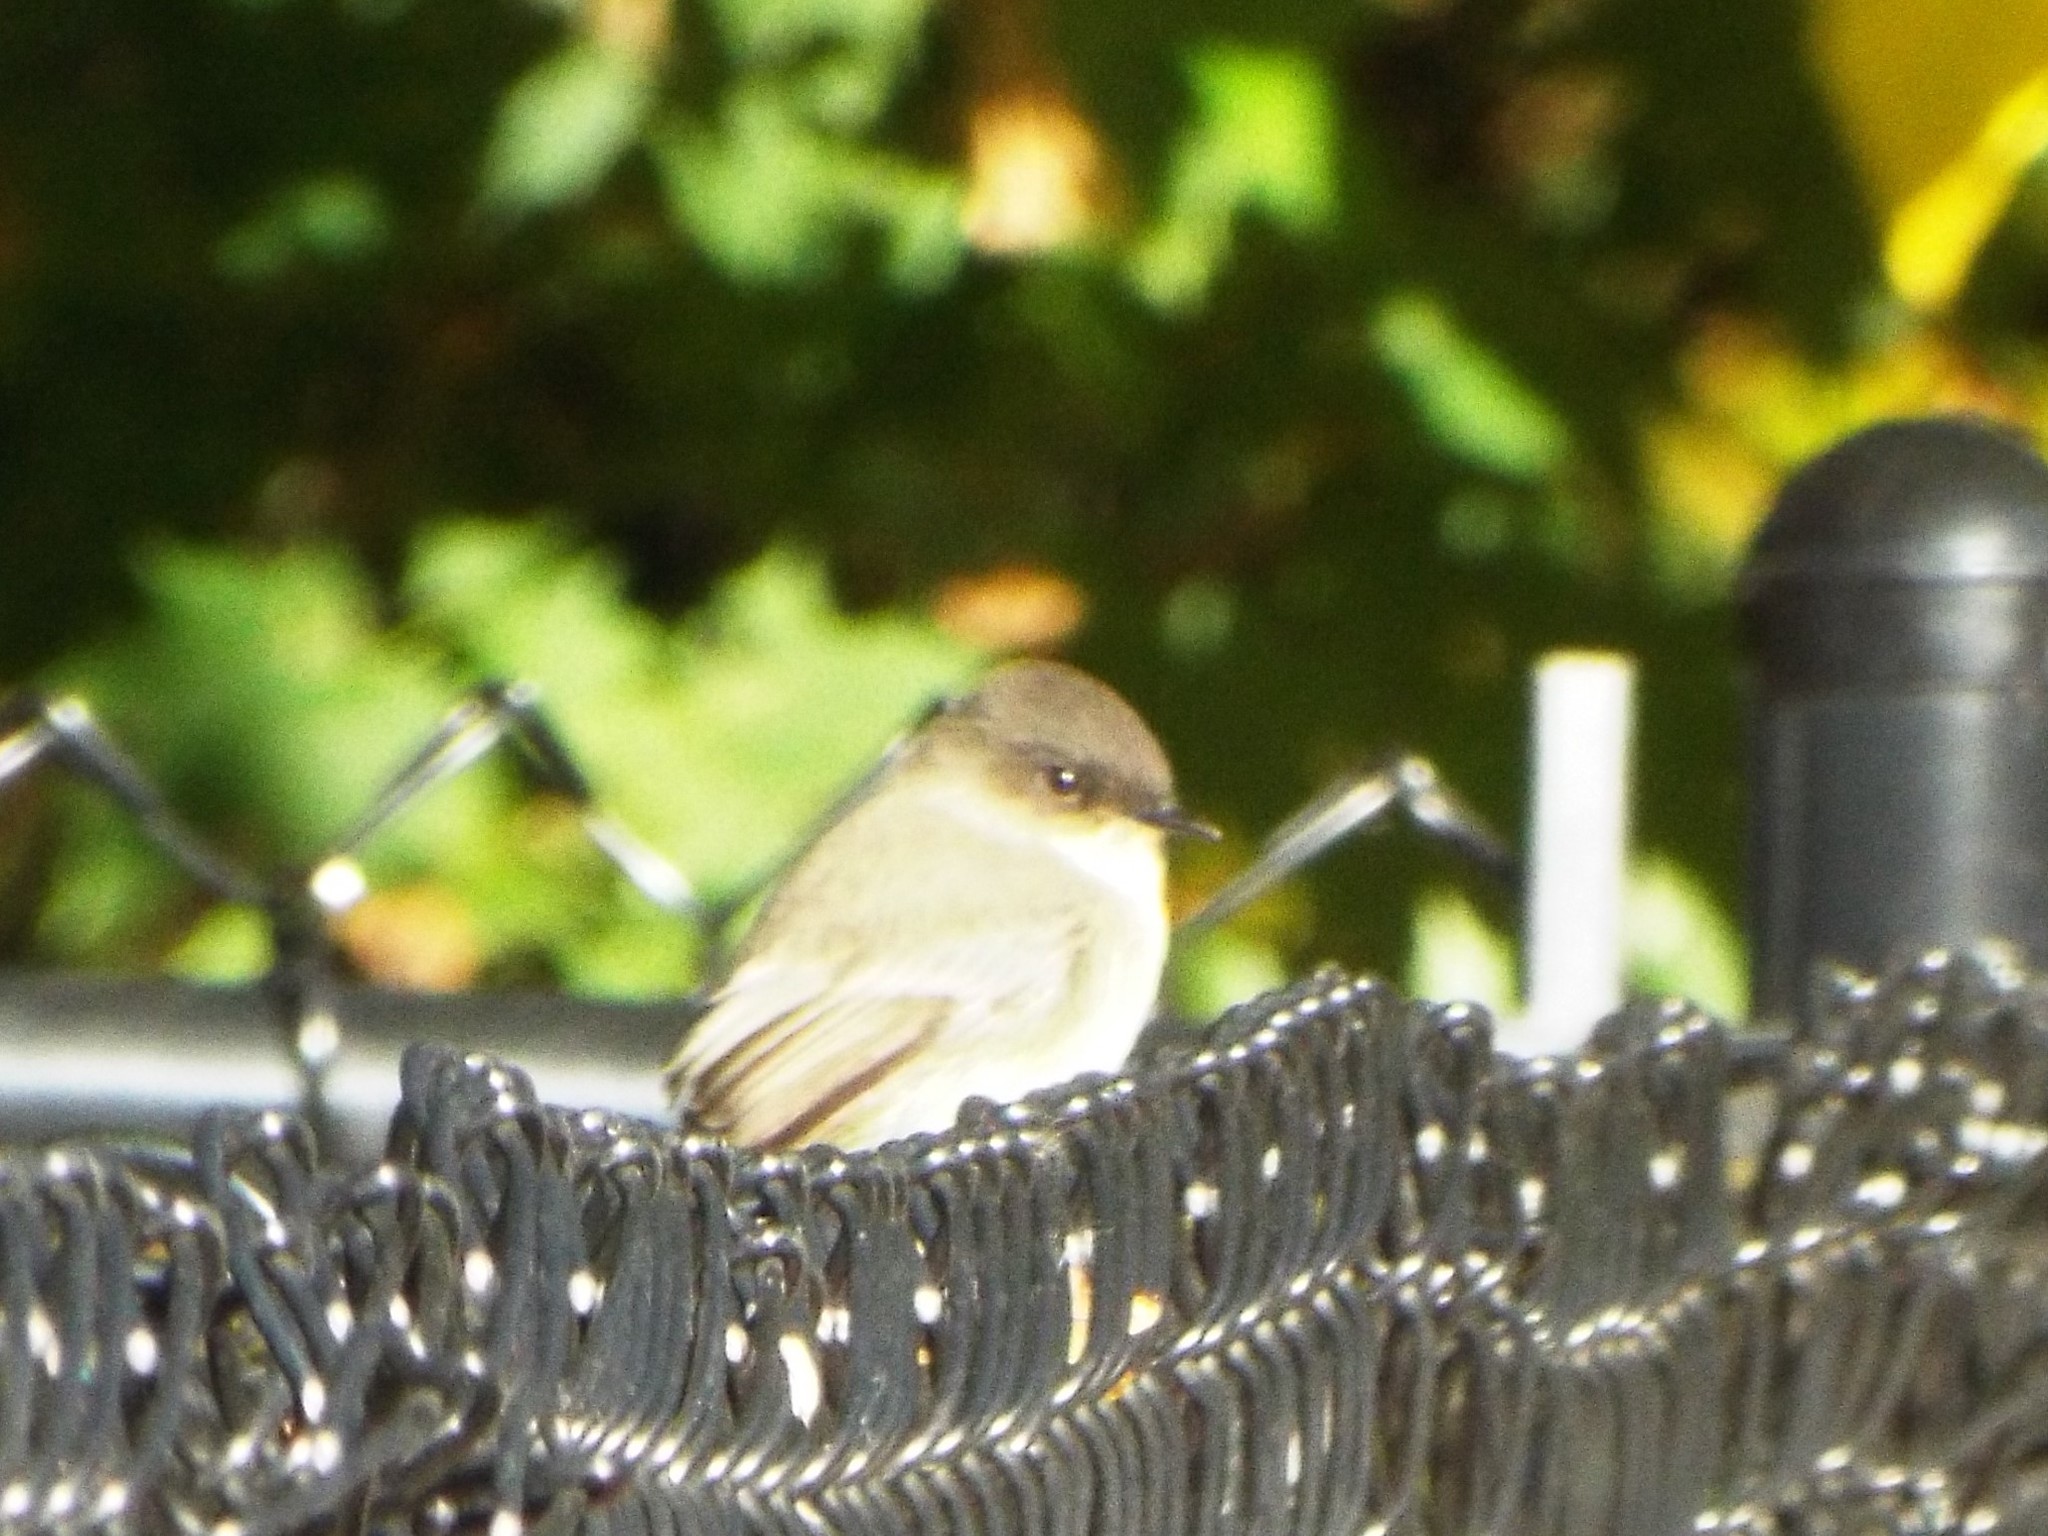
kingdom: Animalia
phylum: Chordata
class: Aves
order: Passeriformes
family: Tyrannidae
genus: Sayornis
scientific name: Sayornis phoebe
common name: Eastern phoebe
